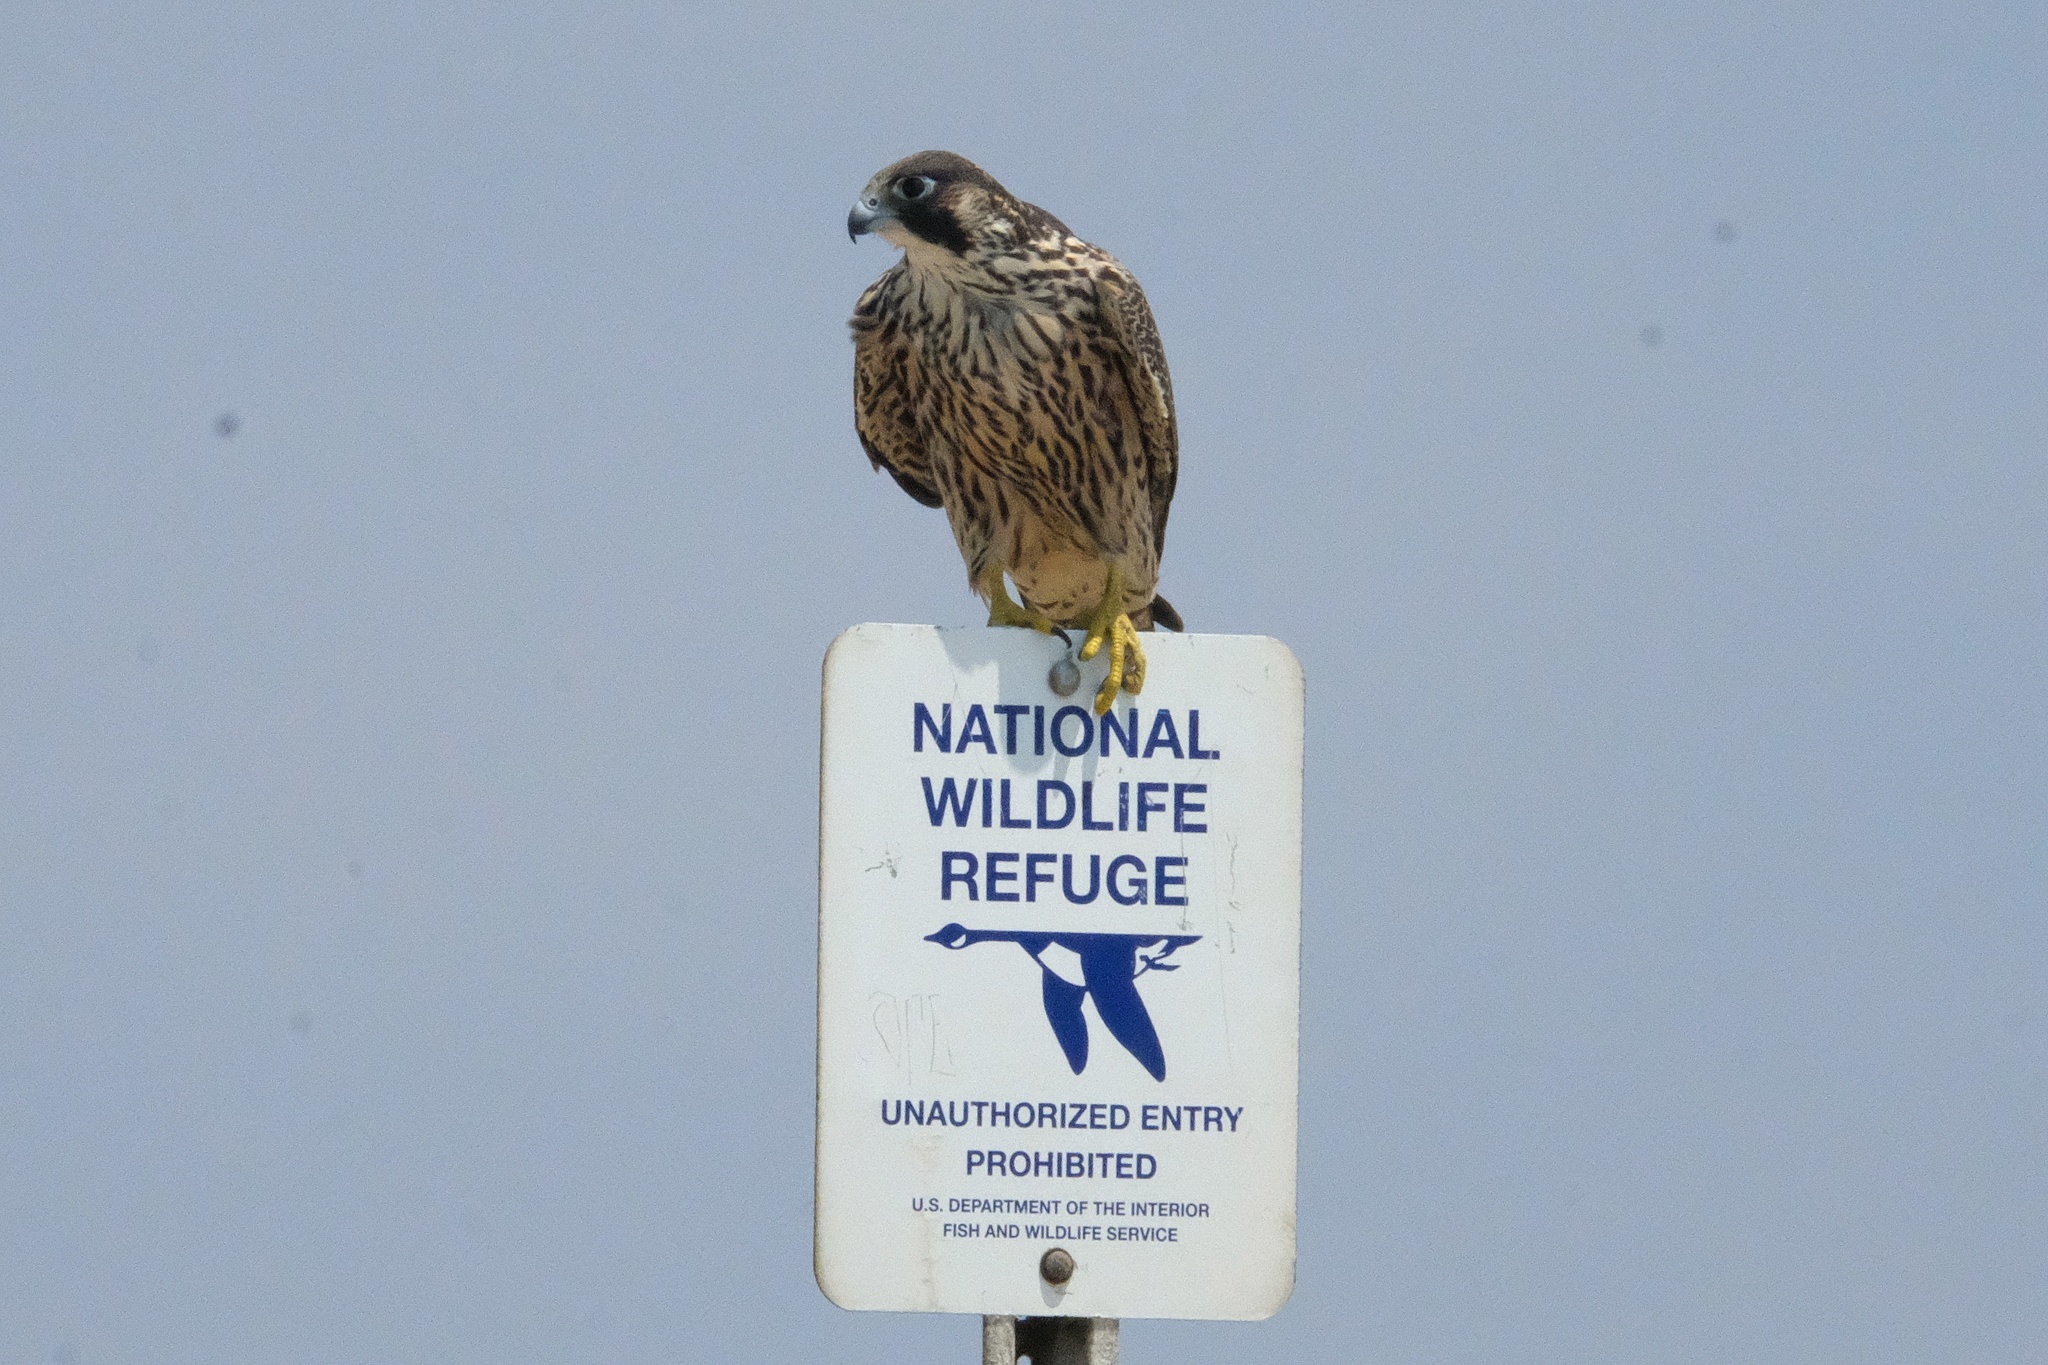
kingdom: Animalia
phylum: Chordata
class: Aves
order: Falconiformes
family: Falconidae
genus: Falco
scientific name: Falco peregrinus
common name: Peregrine falcon
